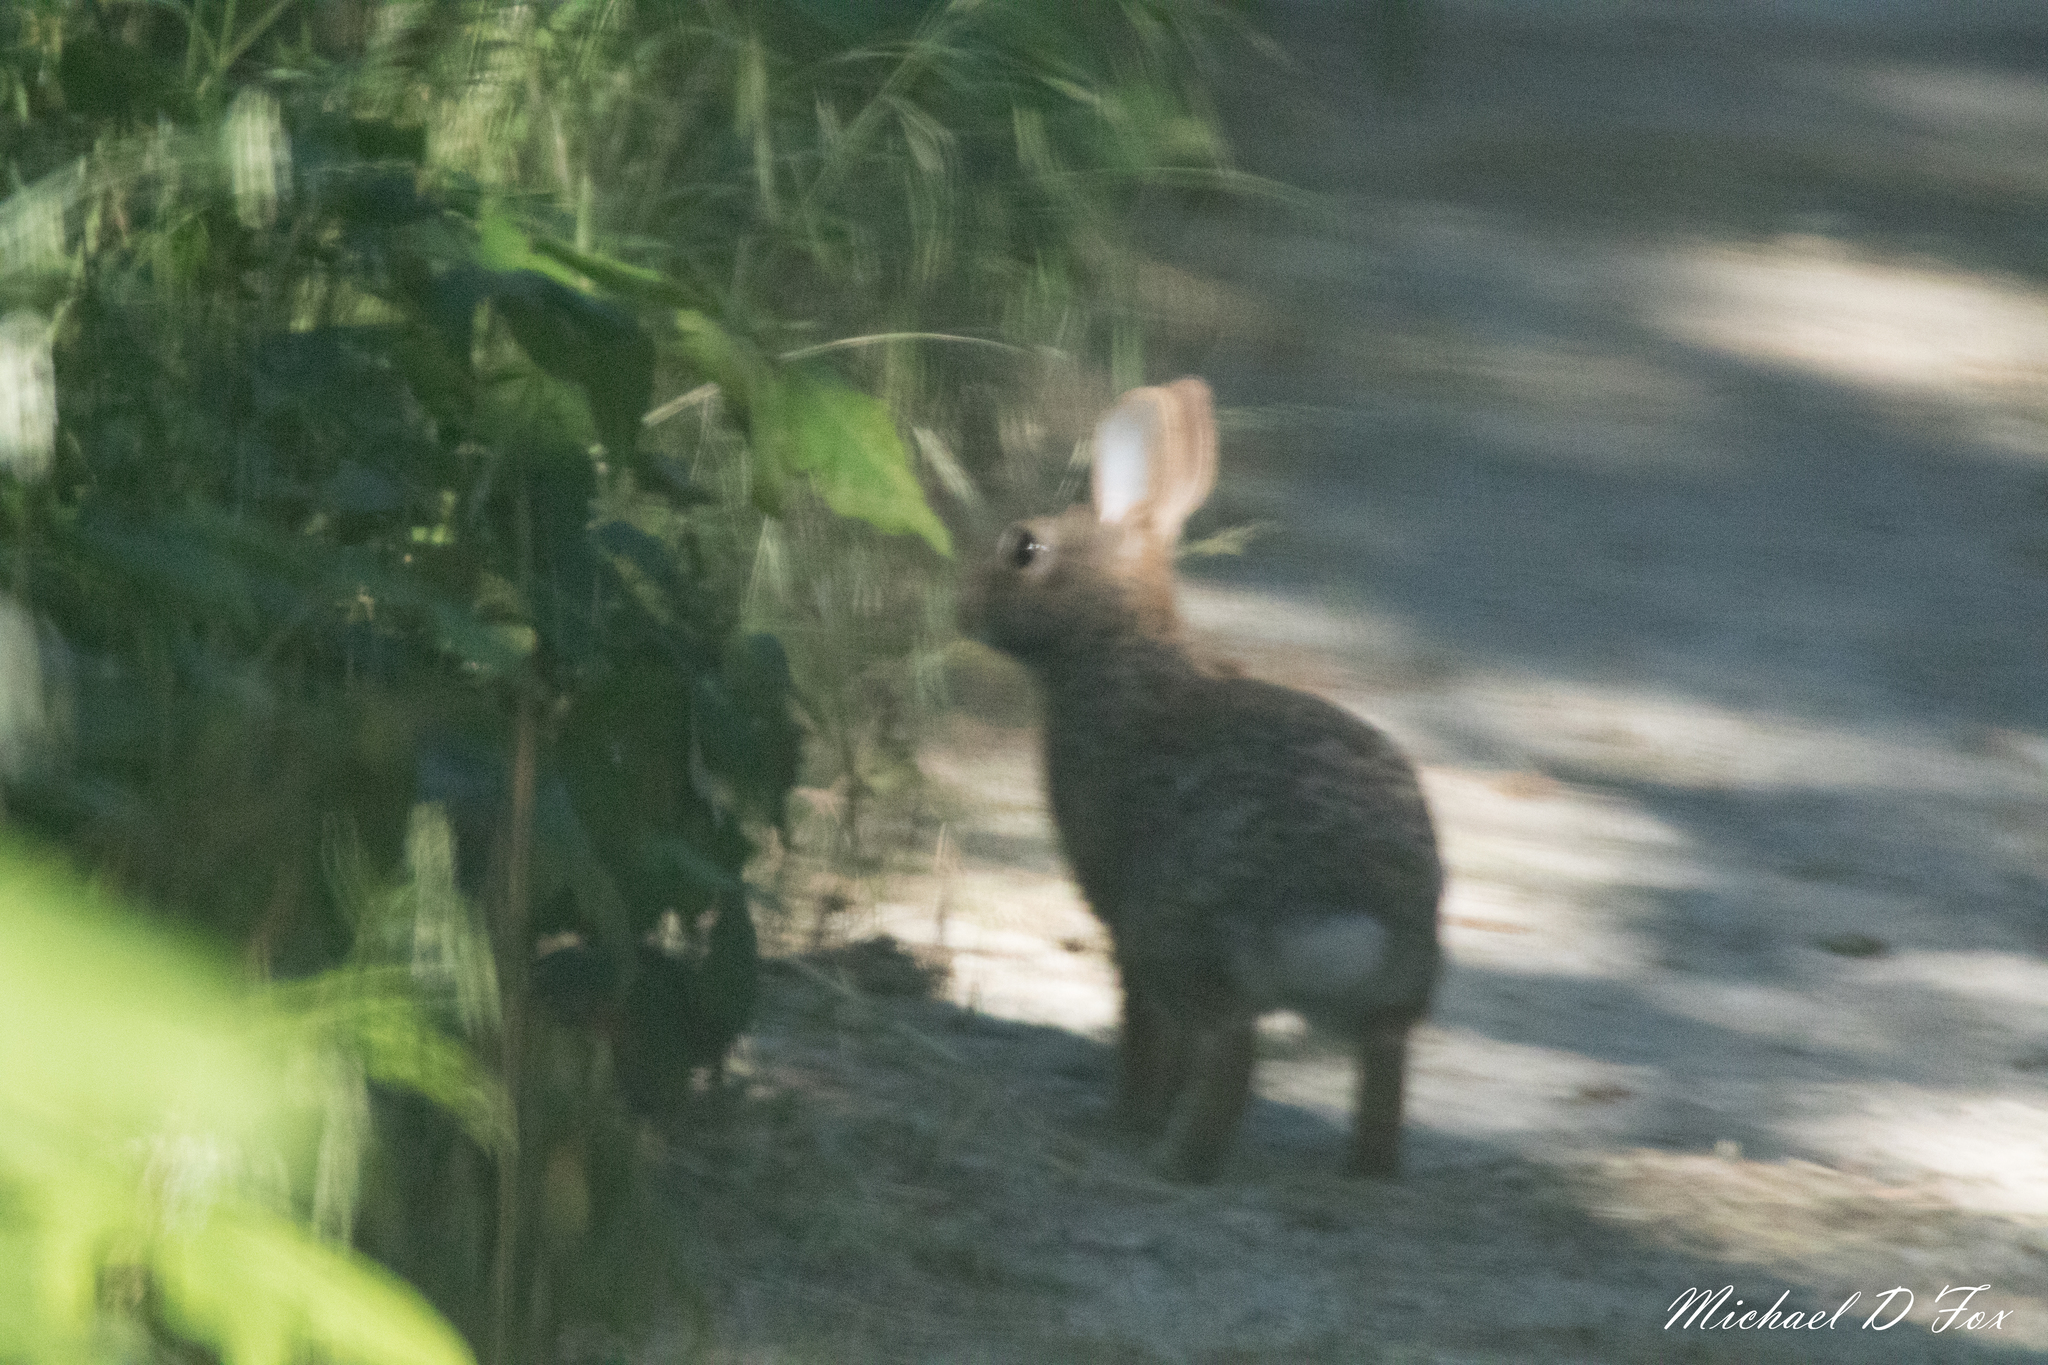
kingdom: Animalia
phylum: Chordata
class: Mammalia
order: Lagomorpha
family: Leporidae
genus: Sylvilagus
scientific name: Sylvilagus floridanus
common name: Eastern cottontail
